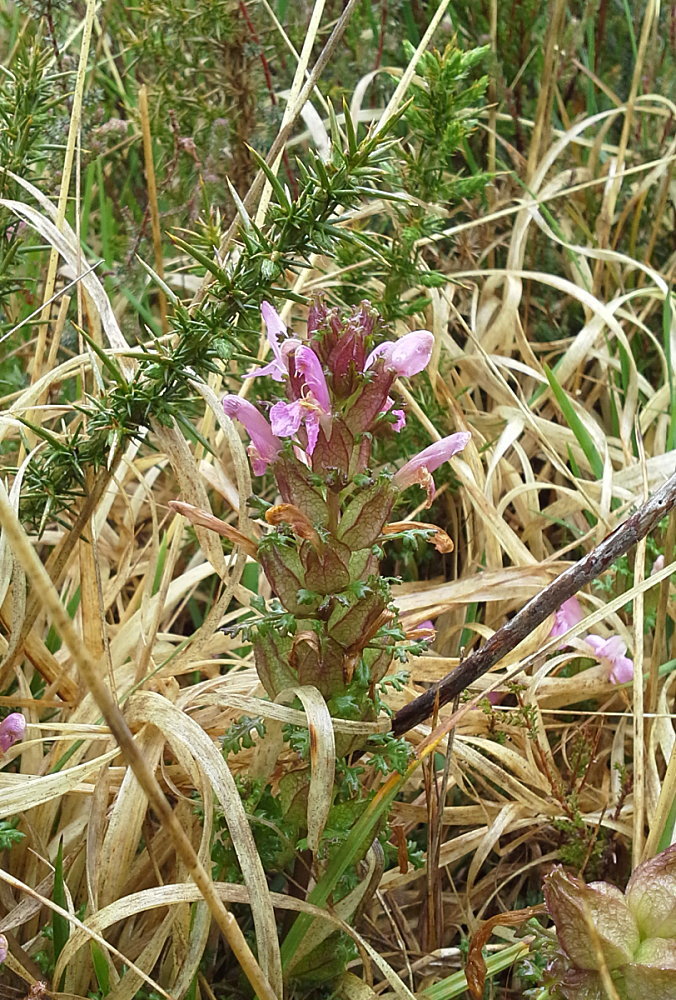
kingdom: Plantae
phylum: Tracheophyta
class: Magnoliopsida
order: Lamiales
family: Orobanchaceae
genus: Pedicularis
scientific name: Pedicularis sylvatica
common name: Lousewort
